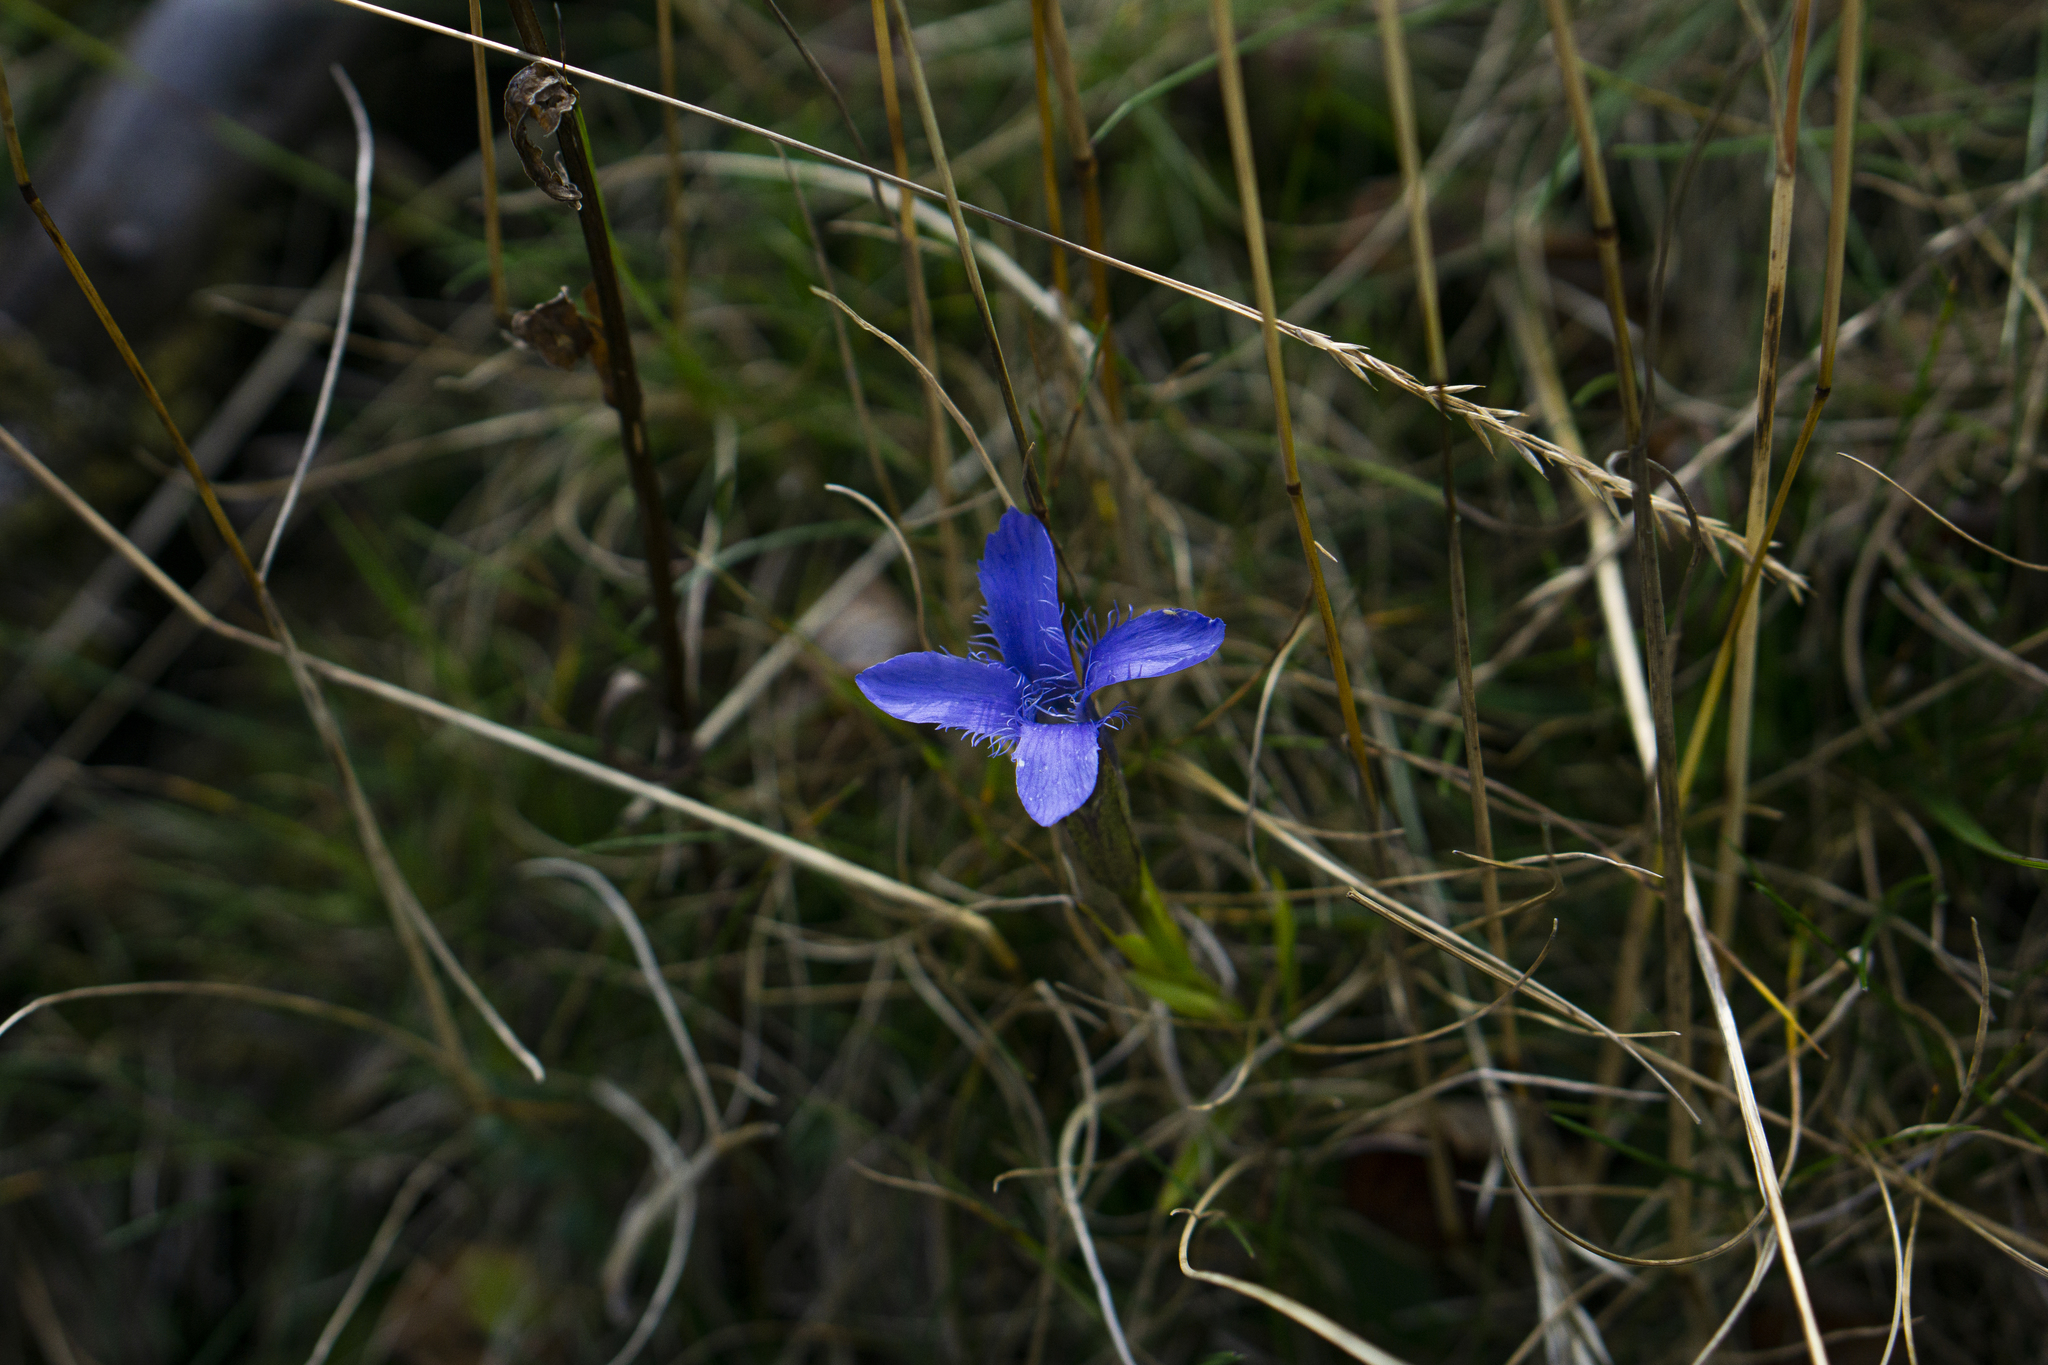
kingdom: Plantae
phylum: Tracheophyta
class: Magnoliopsida
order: Gentianales
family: Gentianaceae
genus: Gentianopsis
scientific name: Gentianopsis ciliata
